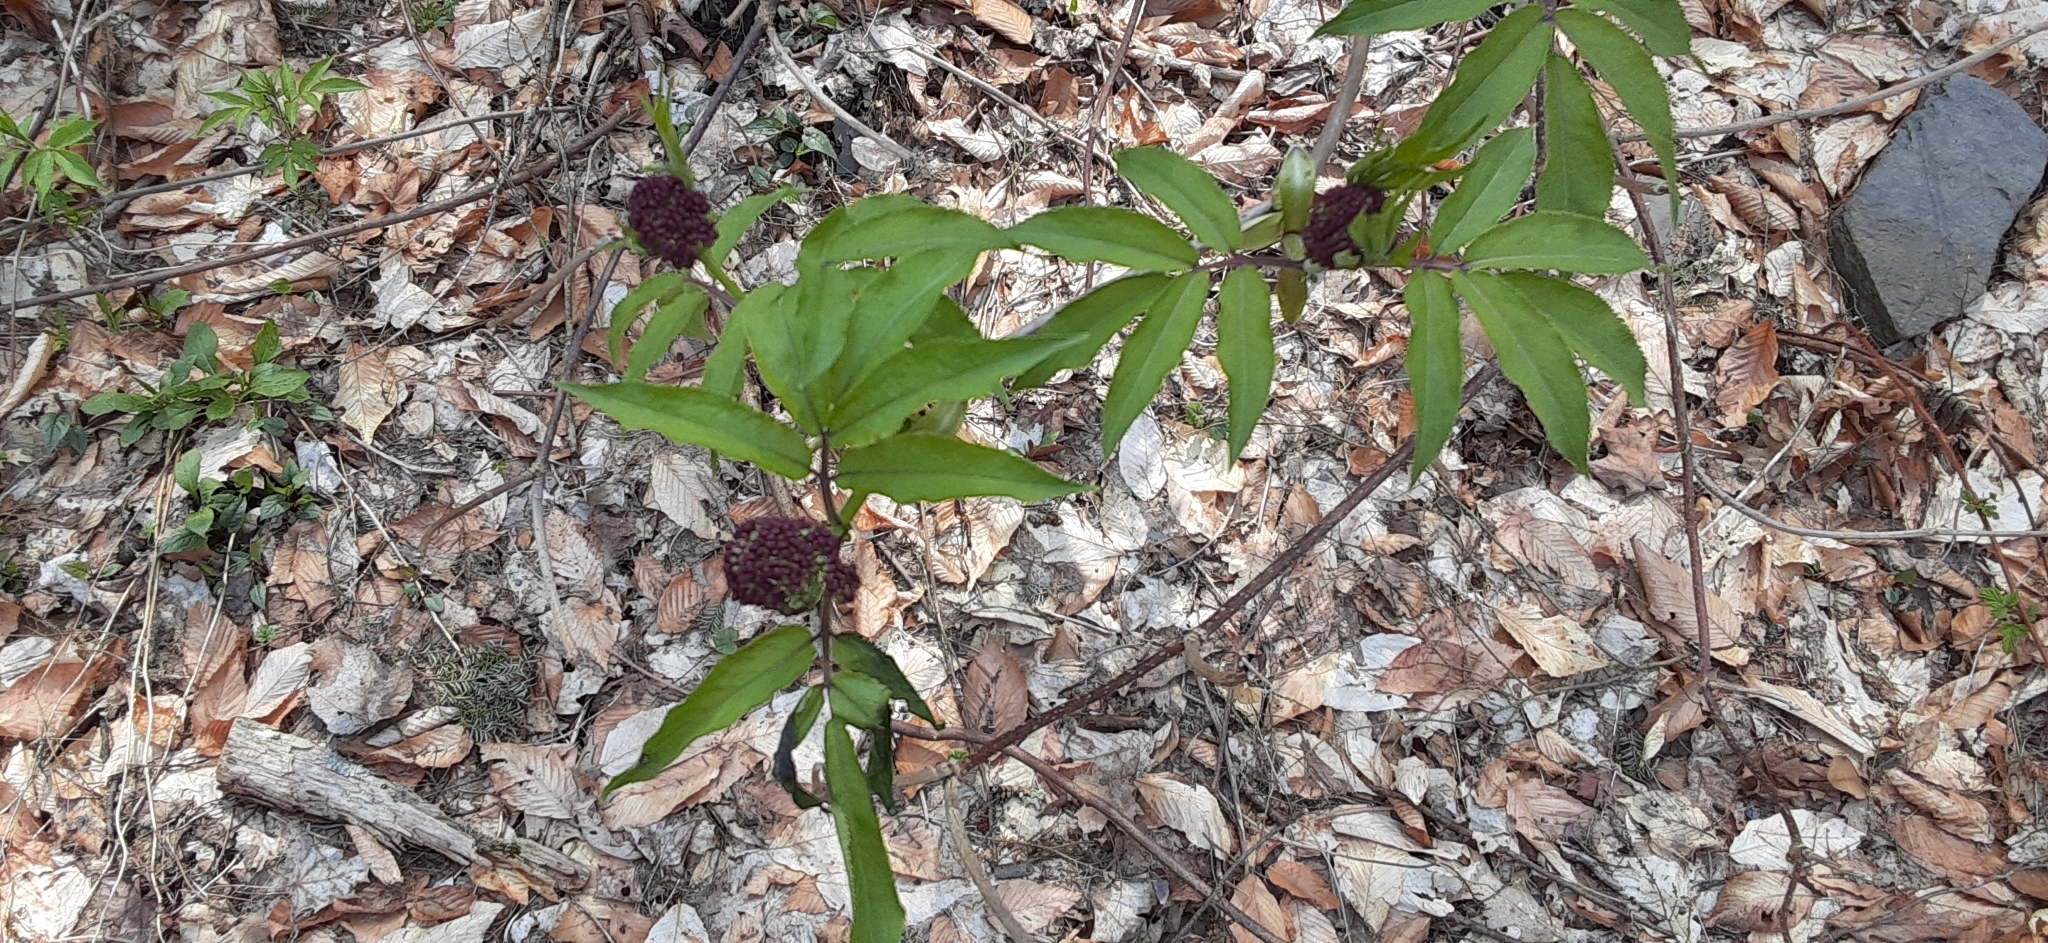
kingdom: Plantae
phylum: Tracheophyta
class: Magnoliopsida
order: Dipsacales
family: Viburnaceae
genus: Sambucus
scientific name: Sambucus racemosa
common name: Red-berried elder
